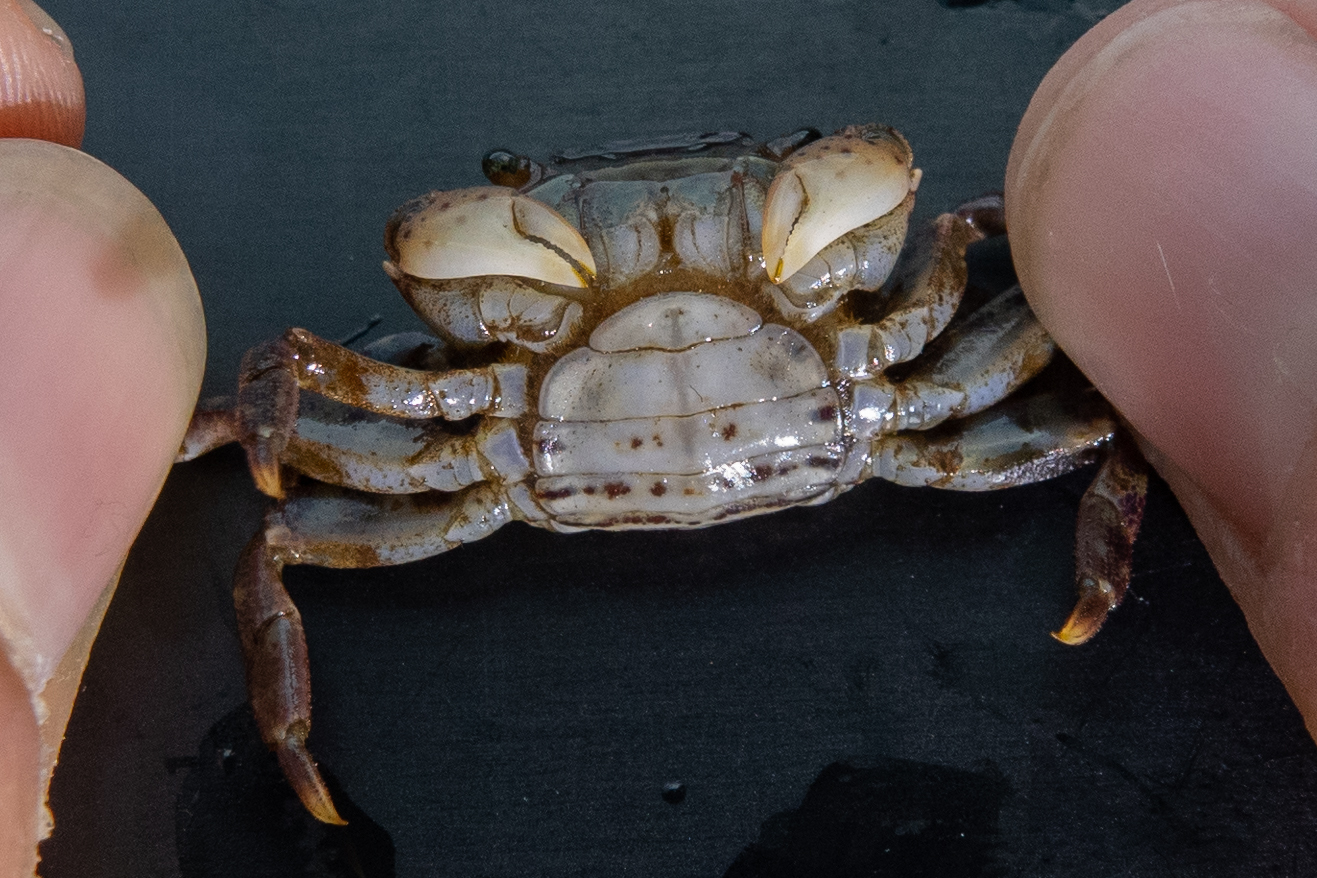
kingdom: Animalia
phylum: Arthropoda
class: Malacostraca
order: Decapoda
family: Varunidae
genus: Hemigrapsus
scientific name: Hemigrapsus sanguineus
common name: Asian shore crab
